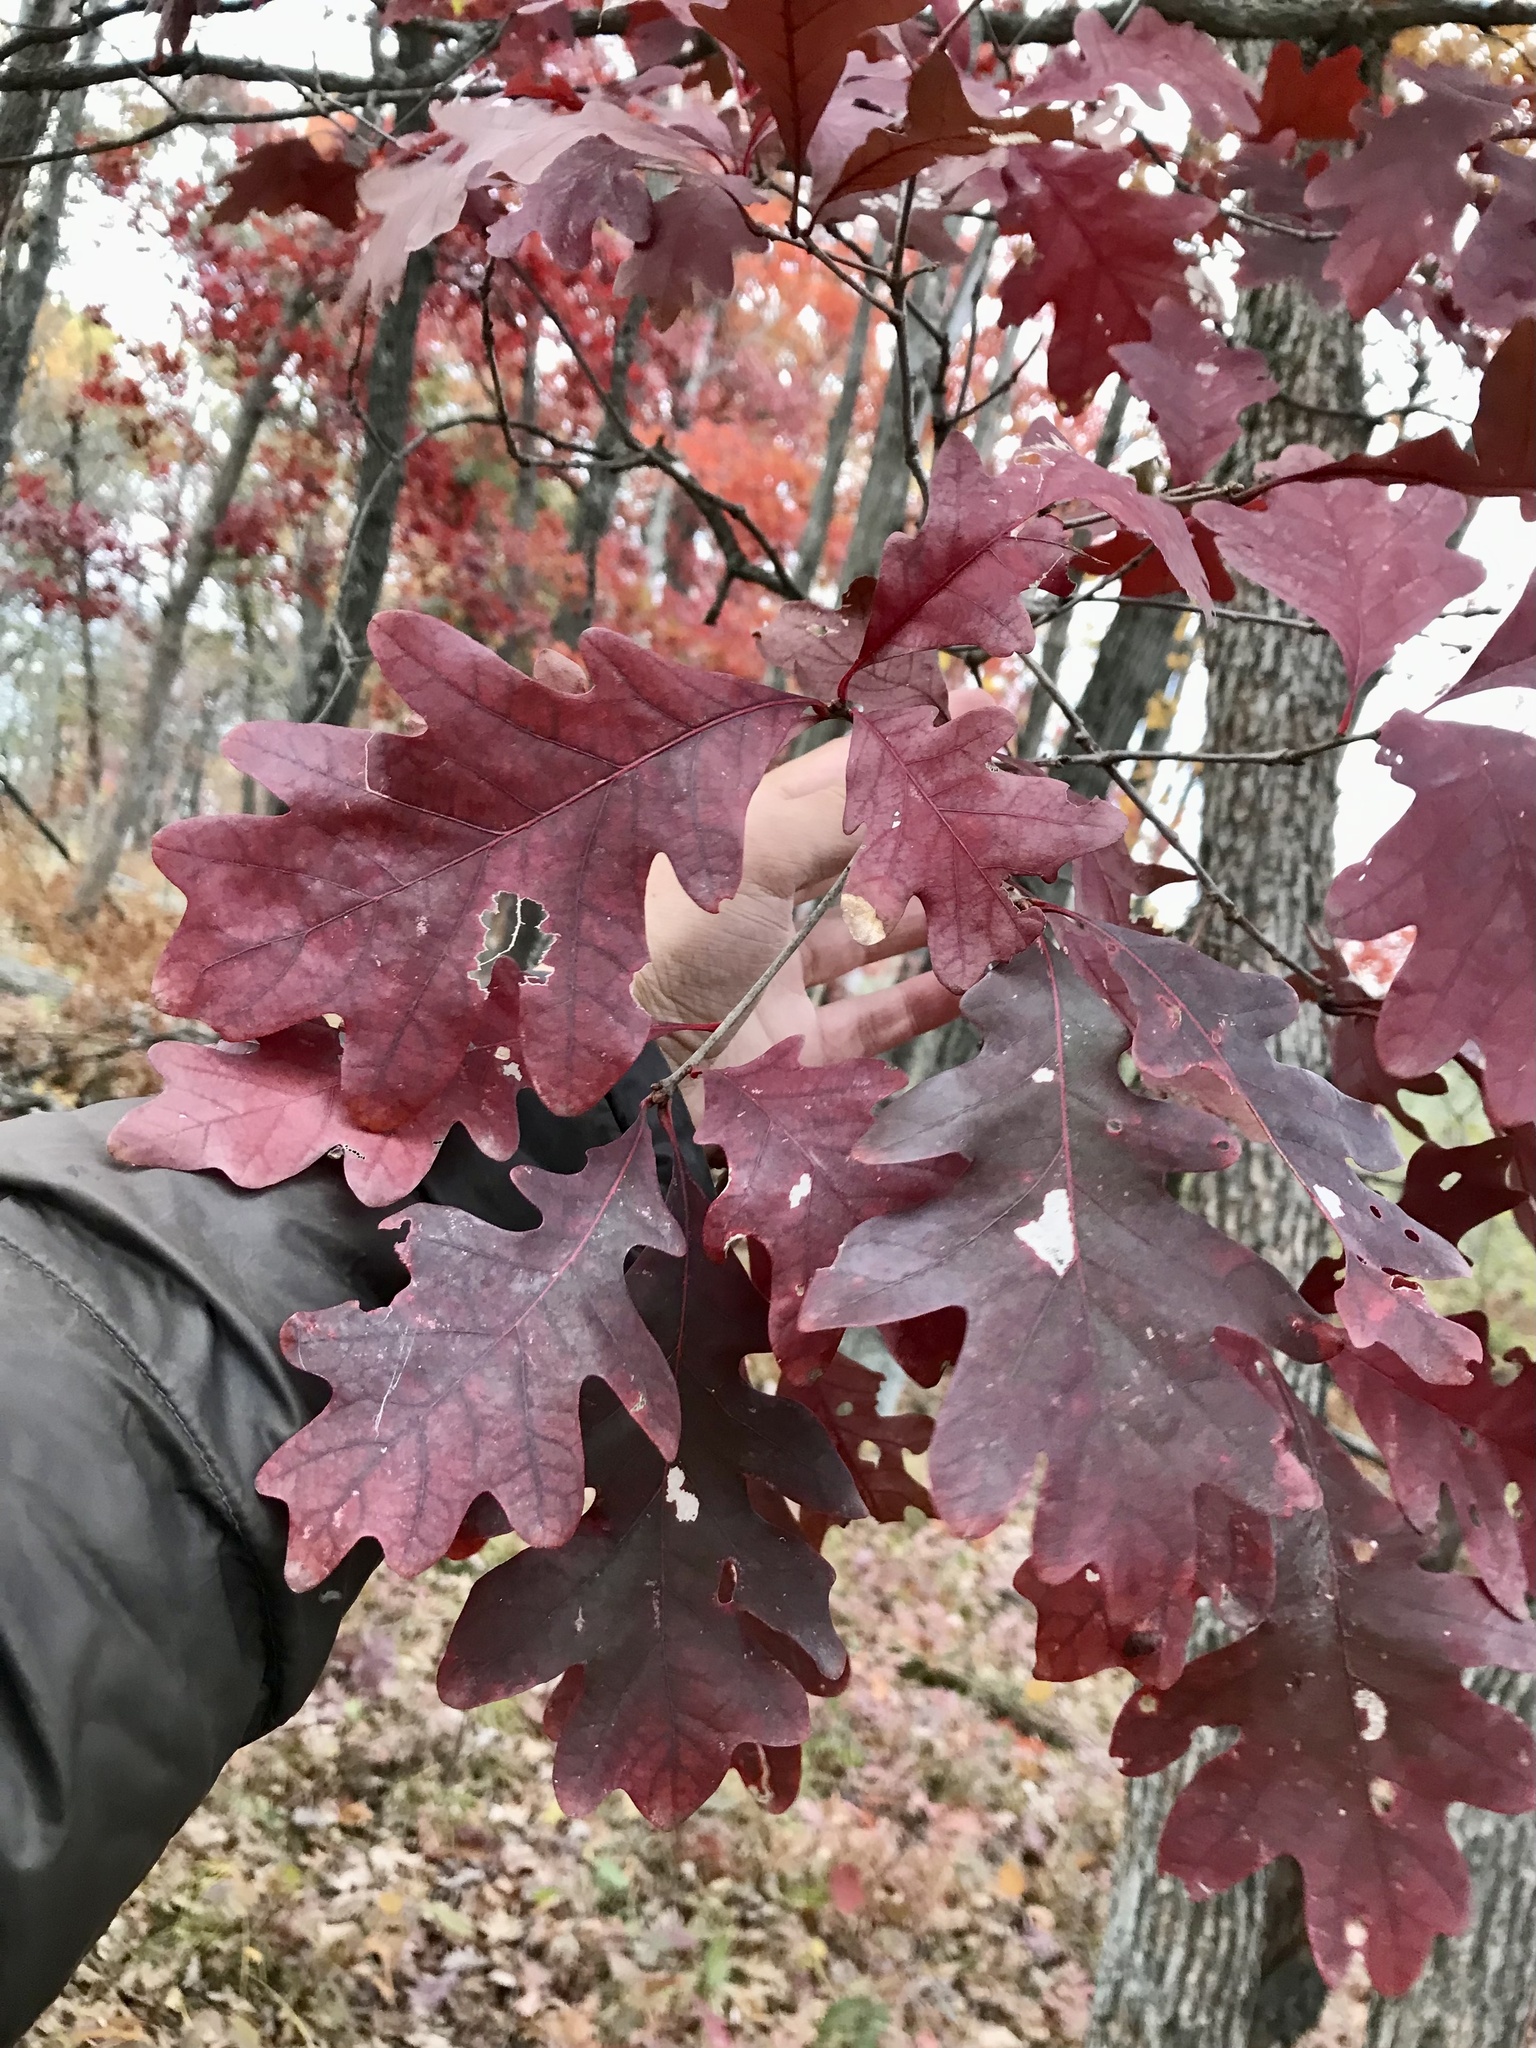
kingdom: Plantae
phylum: Tracheophyta
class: Magnoliopsida
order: Fagales
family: Fagaceae
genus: Quercus
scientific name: Quercus alba
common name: White oak
